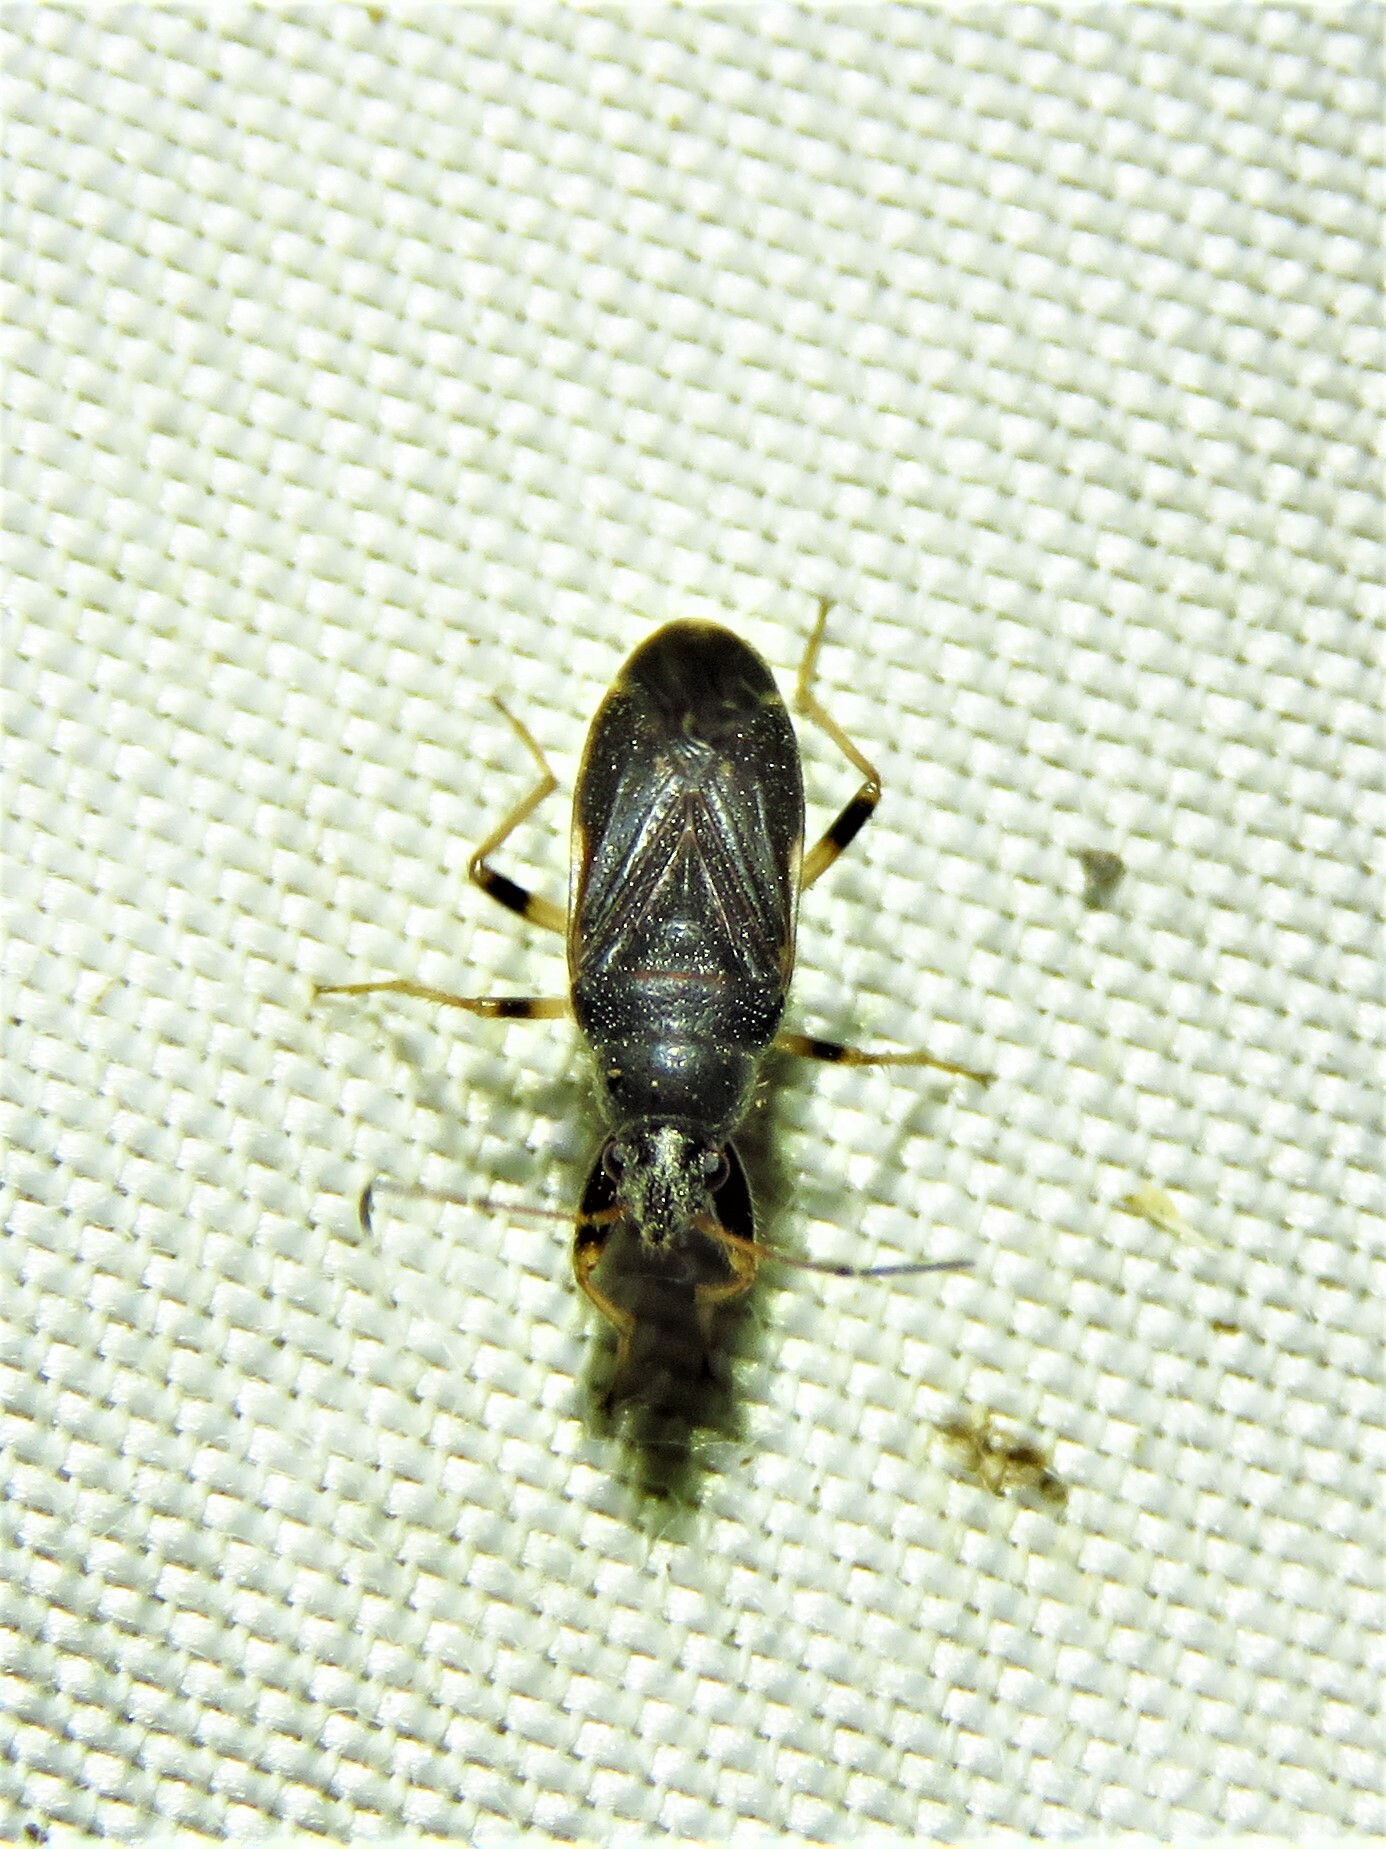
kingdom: Animalia
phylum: Arthropoda
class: Insecta
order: Hemiptera
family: Rhyparochromidae
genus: Perigenes
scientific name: Perigenes similis
